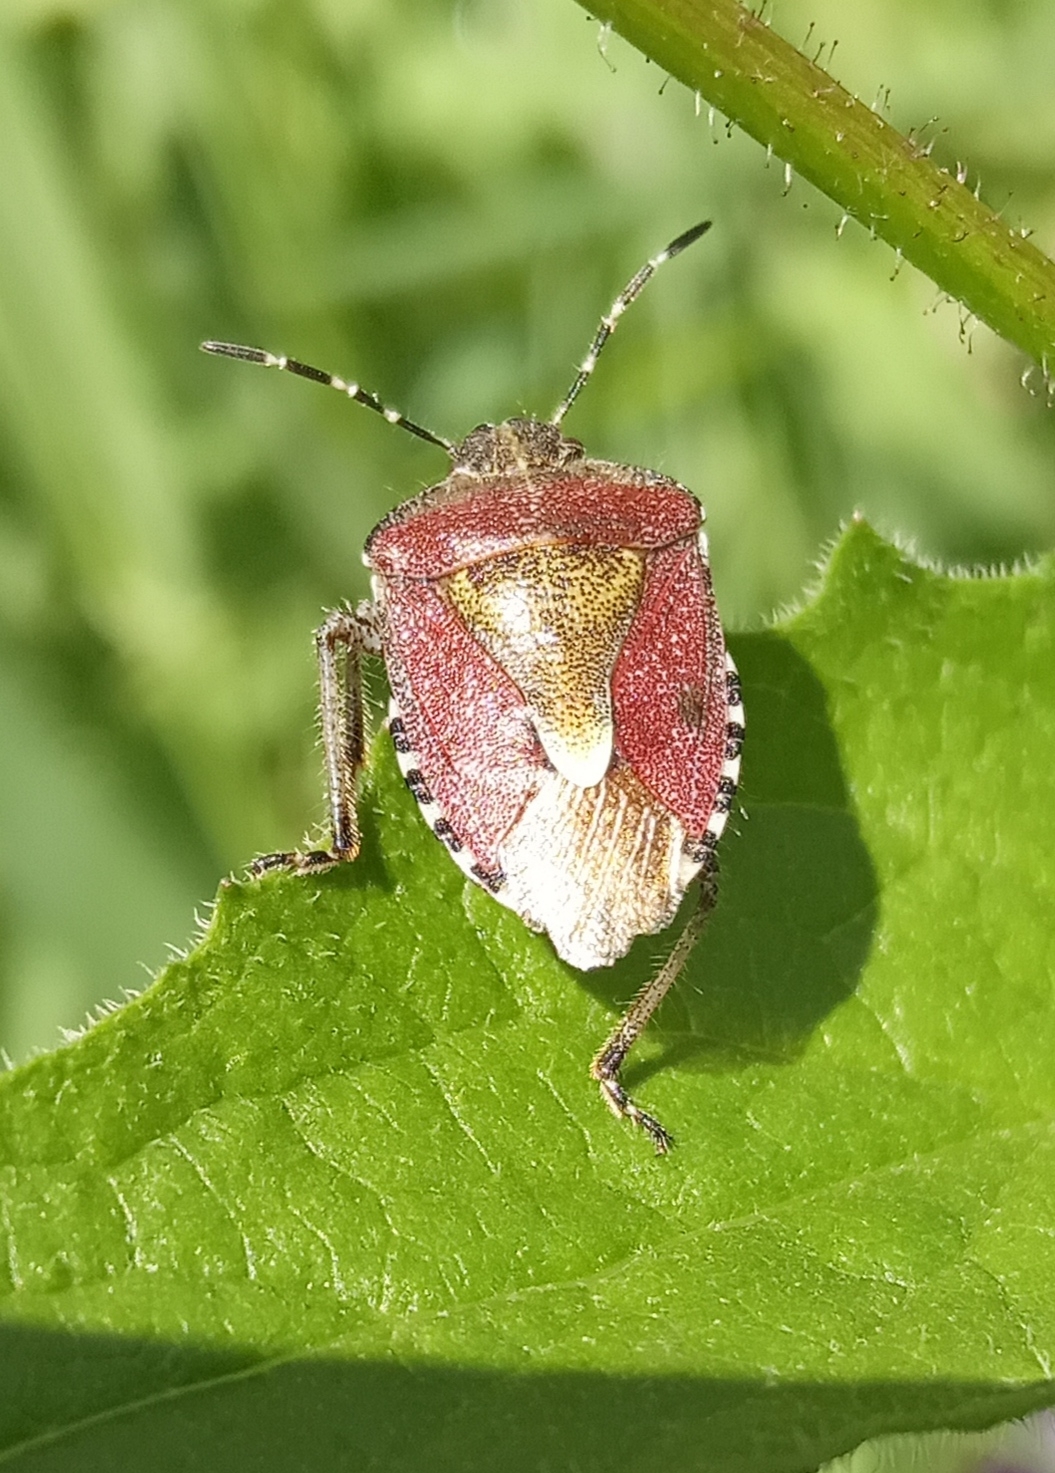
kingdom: Animalia
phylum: Arthropoda
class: Insecta
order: Hemiptera
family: Pentatomidae
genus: Dolycoris
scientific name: Dolycoris baccarum
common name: Sloe bug
